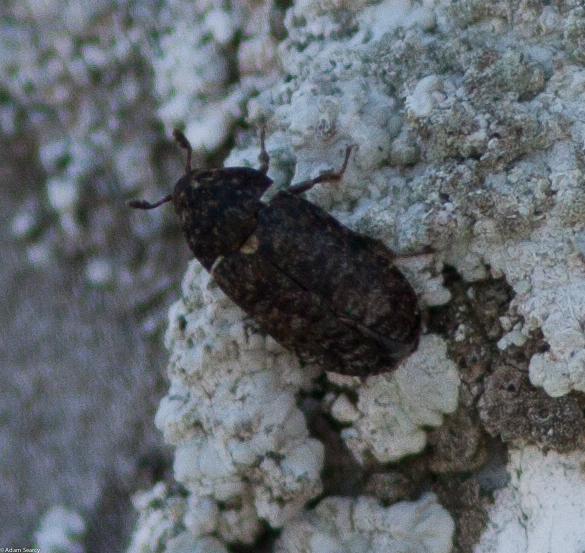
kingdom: Animalia
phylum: Arthropoda
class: Insecta
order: Coleoptera
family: Dermestidae
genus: Dermestes
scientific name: Dermestes talpinus
